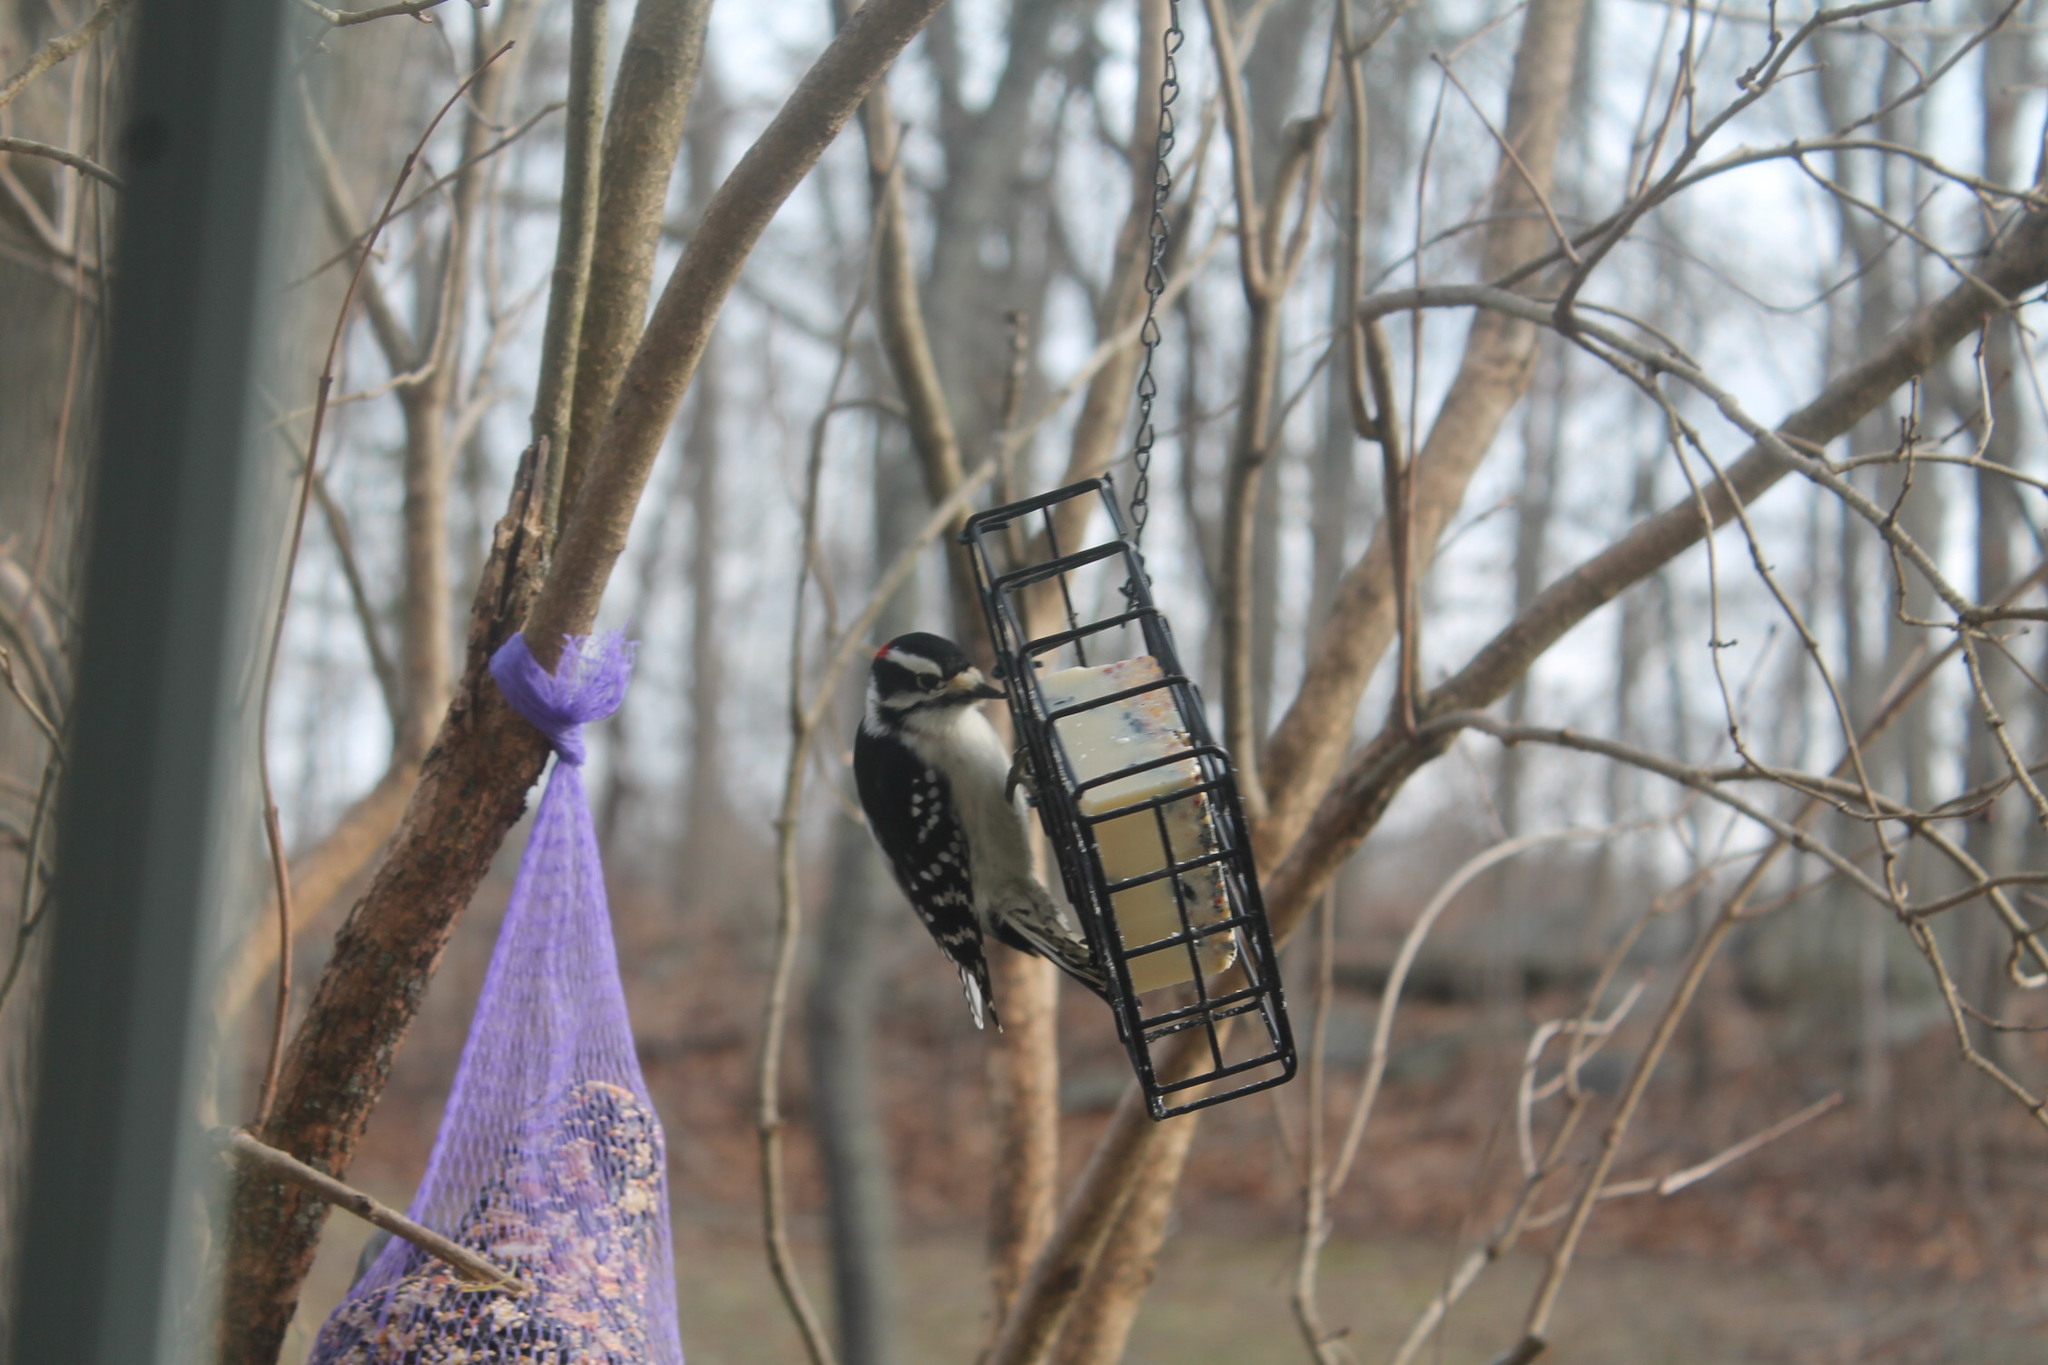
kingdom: Animalia
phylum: Chordata
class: Aves
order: Piciformes
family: Picidae
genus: Dryobates
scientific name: Dryobates pubescens
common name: Downy woodpecker
